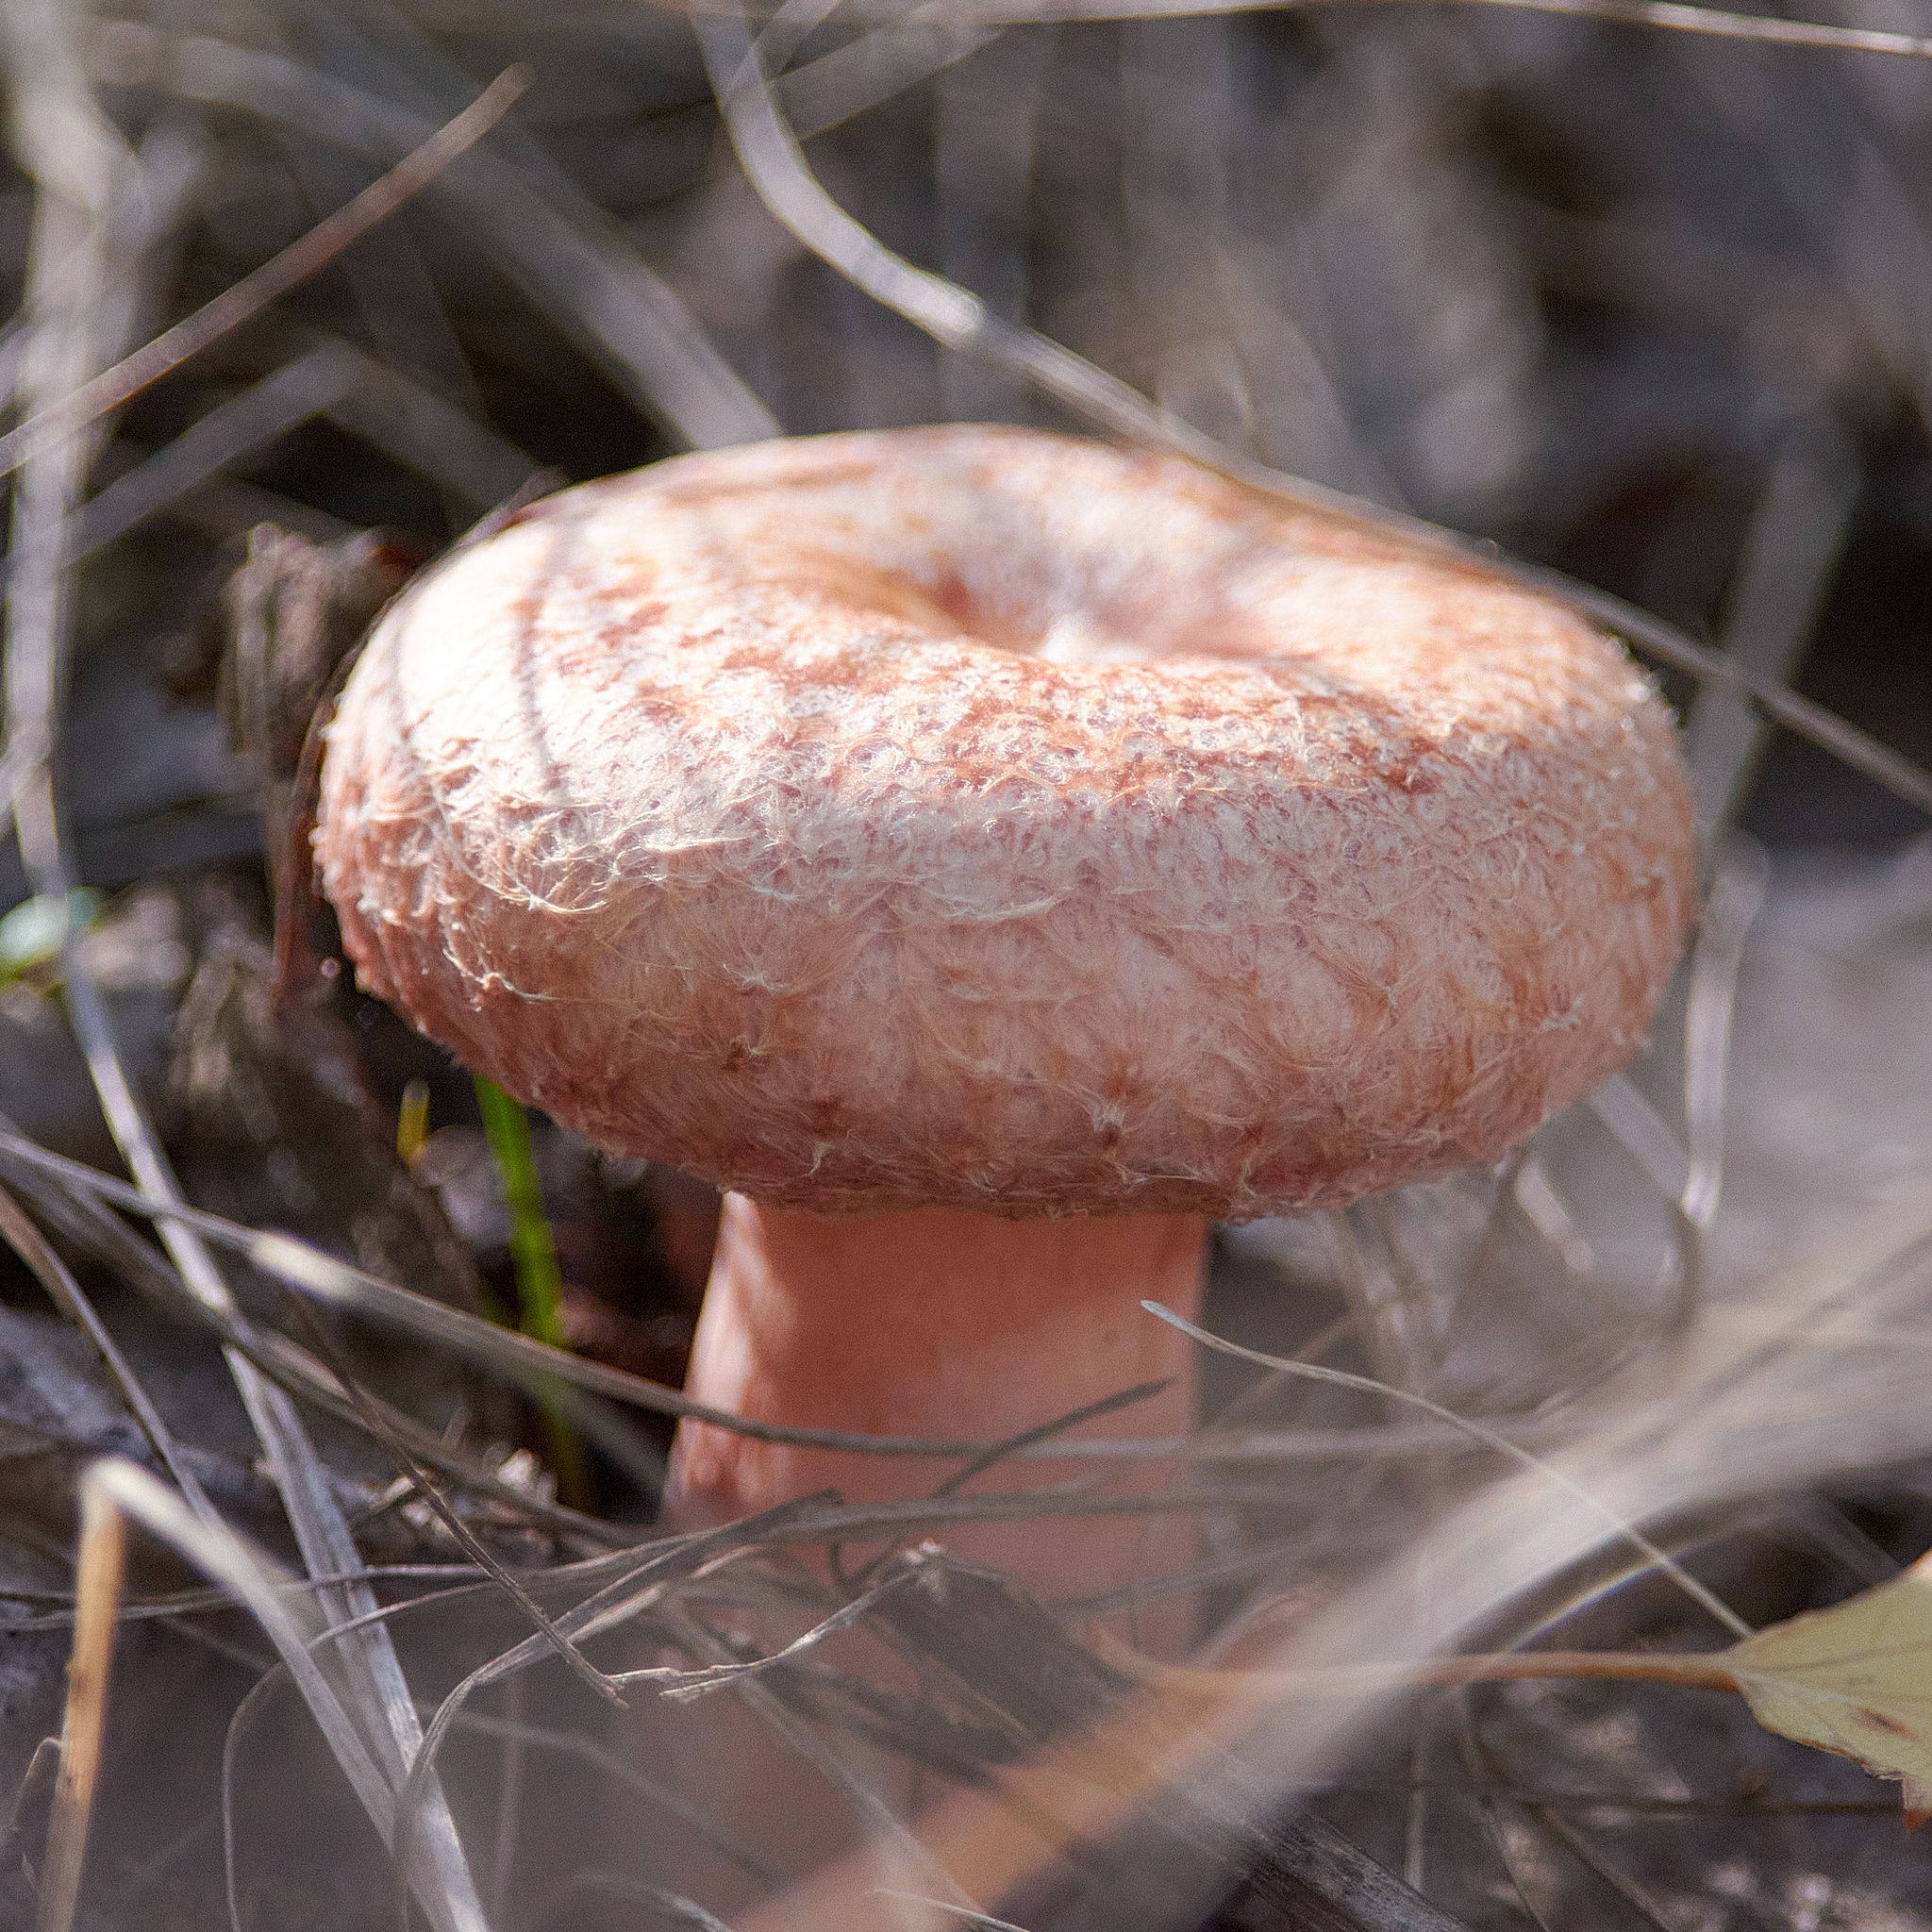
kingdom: Fungi
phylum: Basidiomycota
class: Agaricomycetes
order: Russulales
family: Russulaceae
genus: Lactarius
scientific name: Lactarius torminosus
